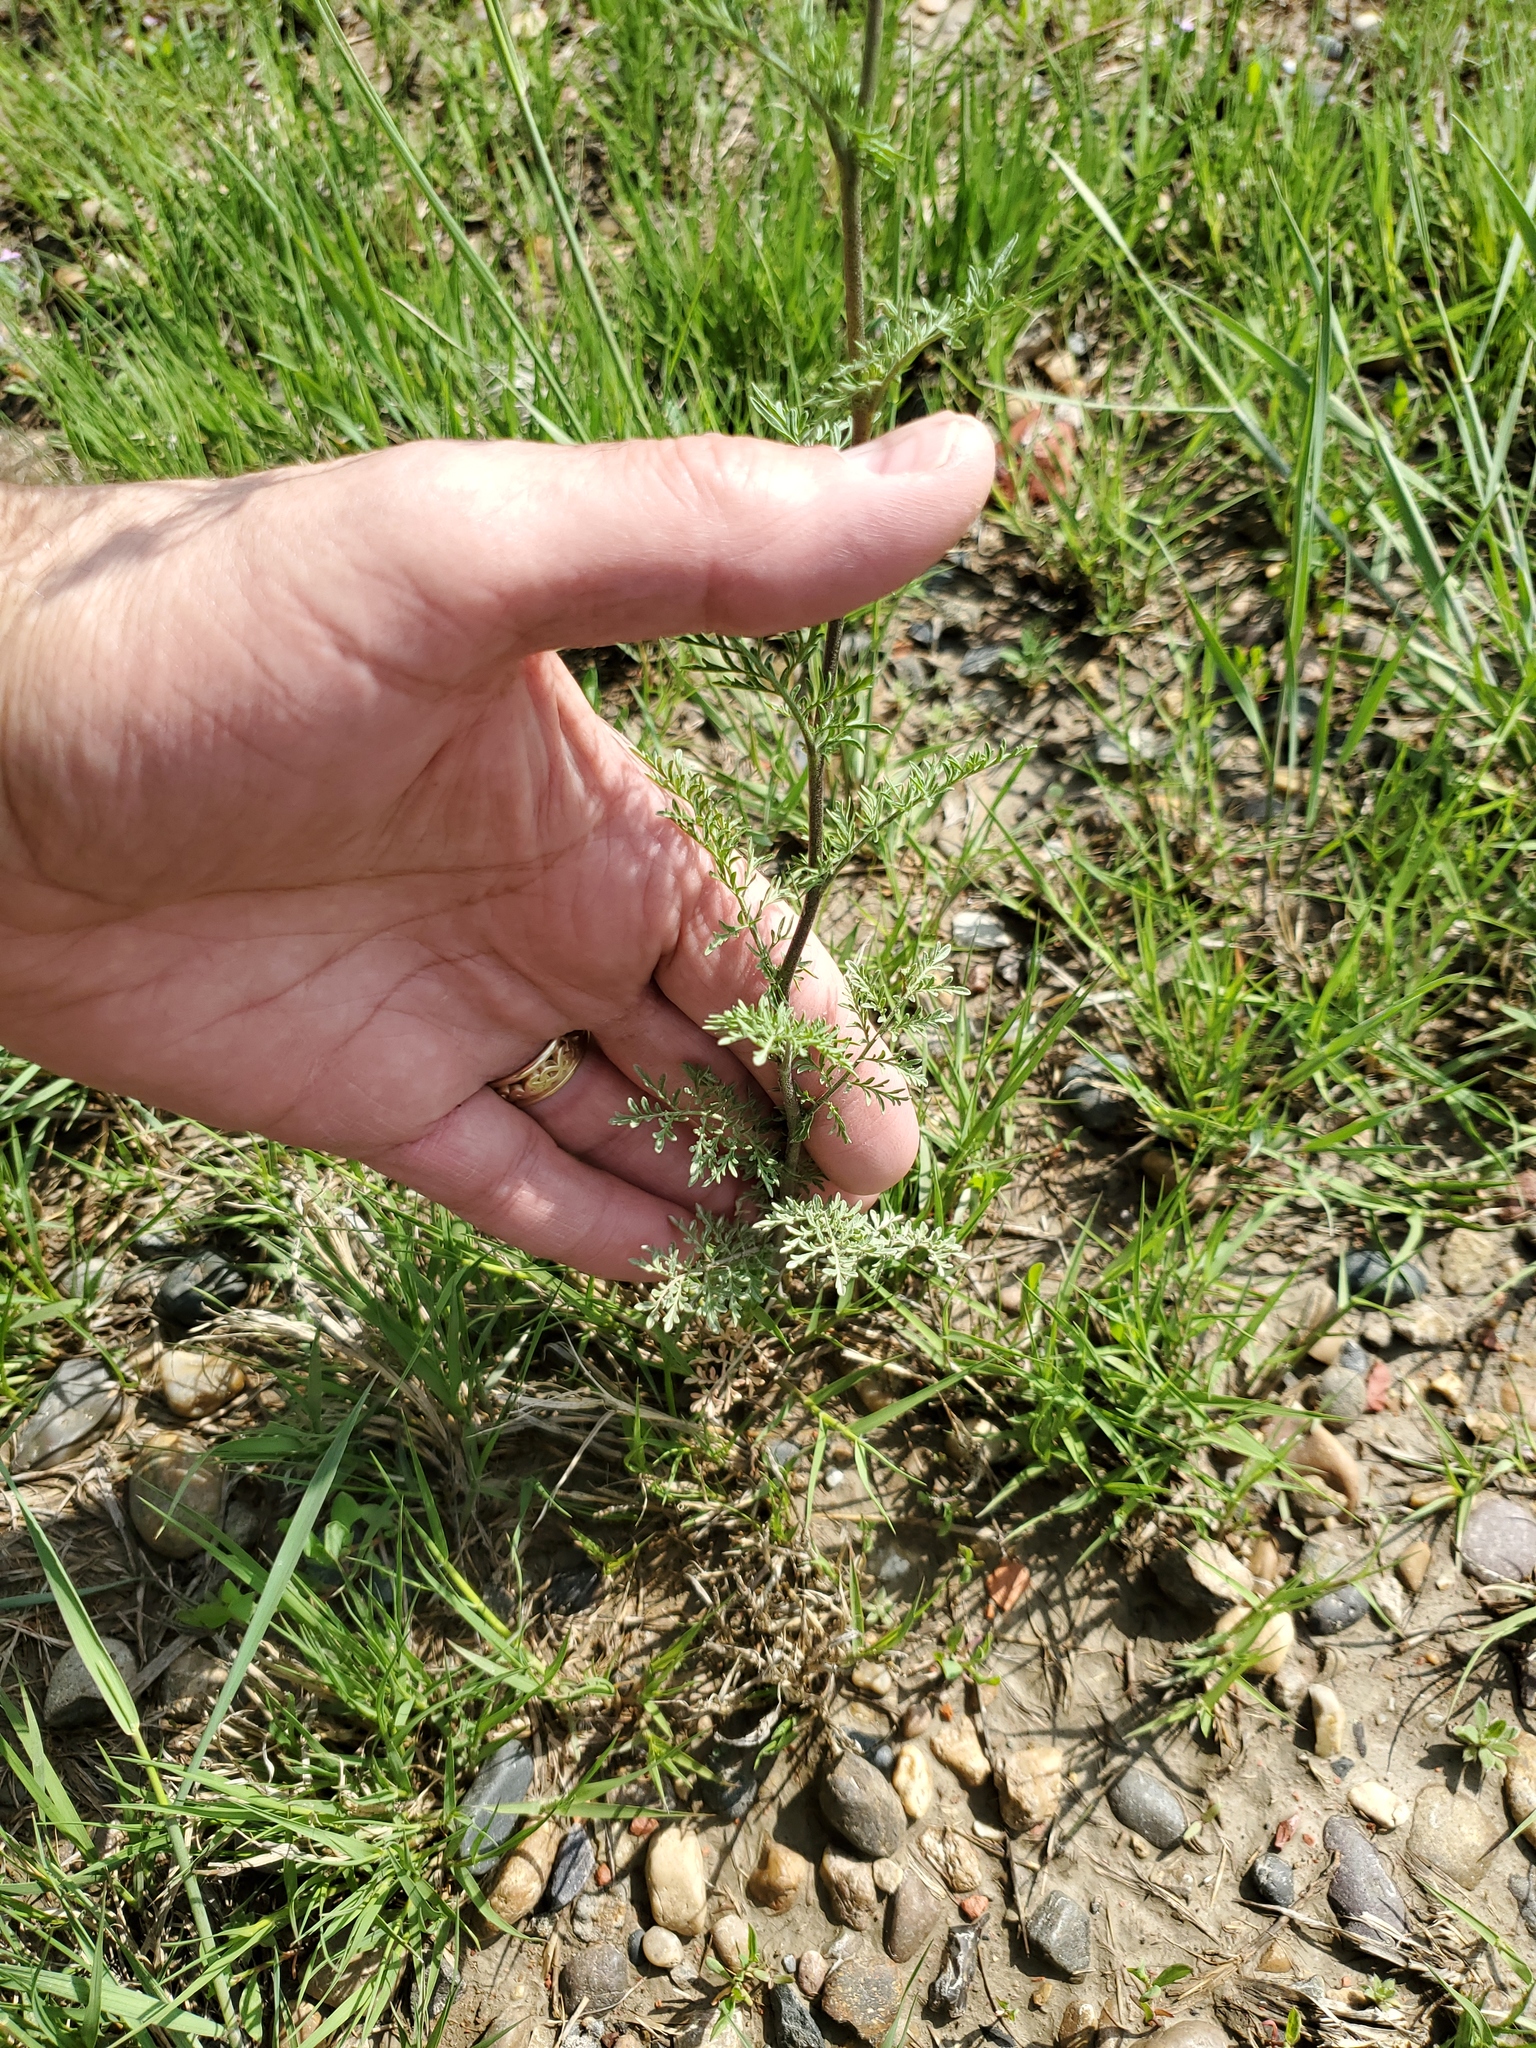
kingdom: Plantae
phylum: Tracheophyta
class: Magnoliopsida
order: Brassicales
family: Brassicaceae
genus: Descurainia
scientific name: Descurainia sophia
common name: Flixweed
